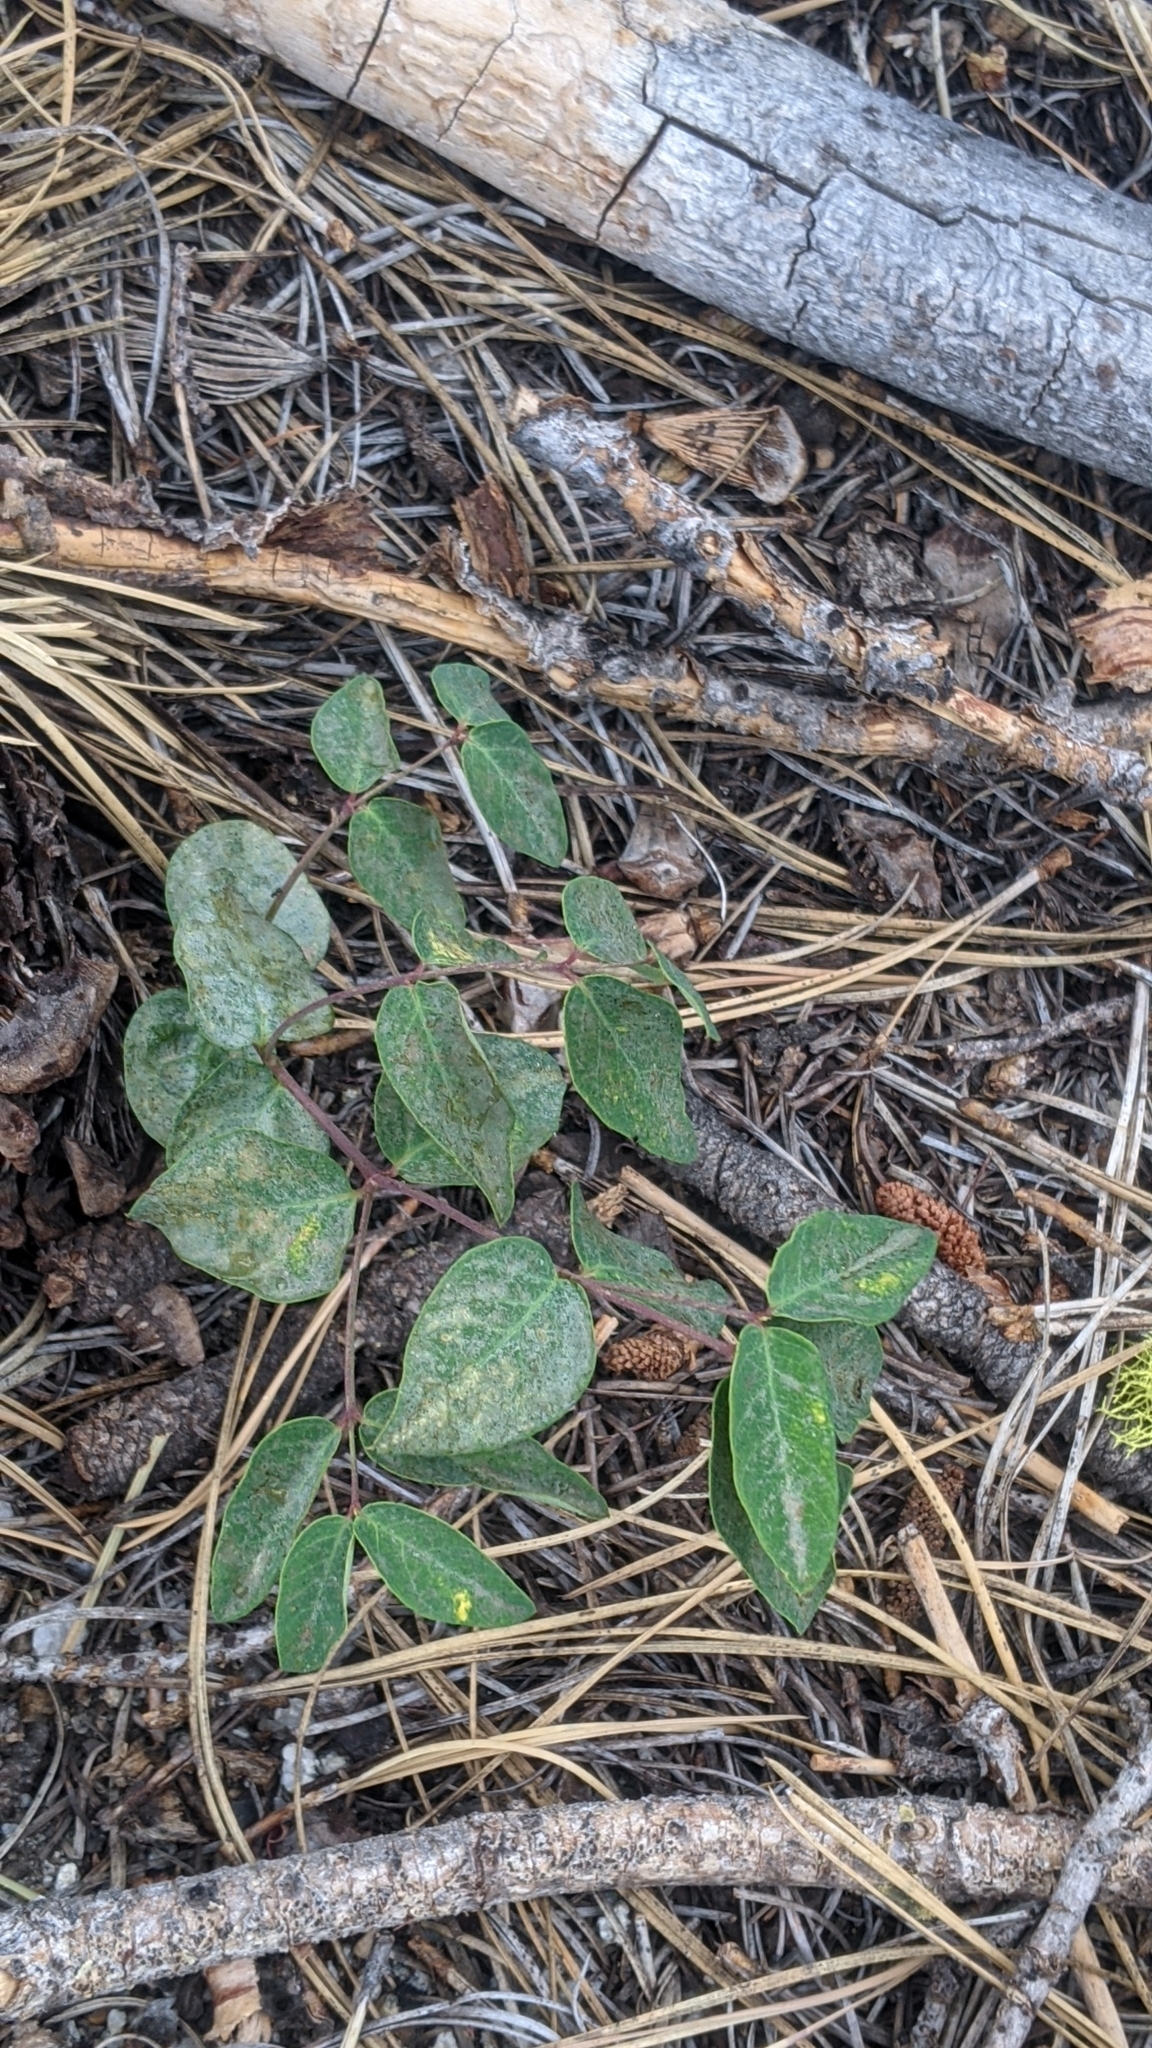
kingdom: Plantae
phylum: Tracheophyta
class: Magnoliopsida
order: Gentianales
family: Apocynaceae
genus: Apocynum
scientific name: Apocynum androsaemifolium
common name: Spreading dogbane
